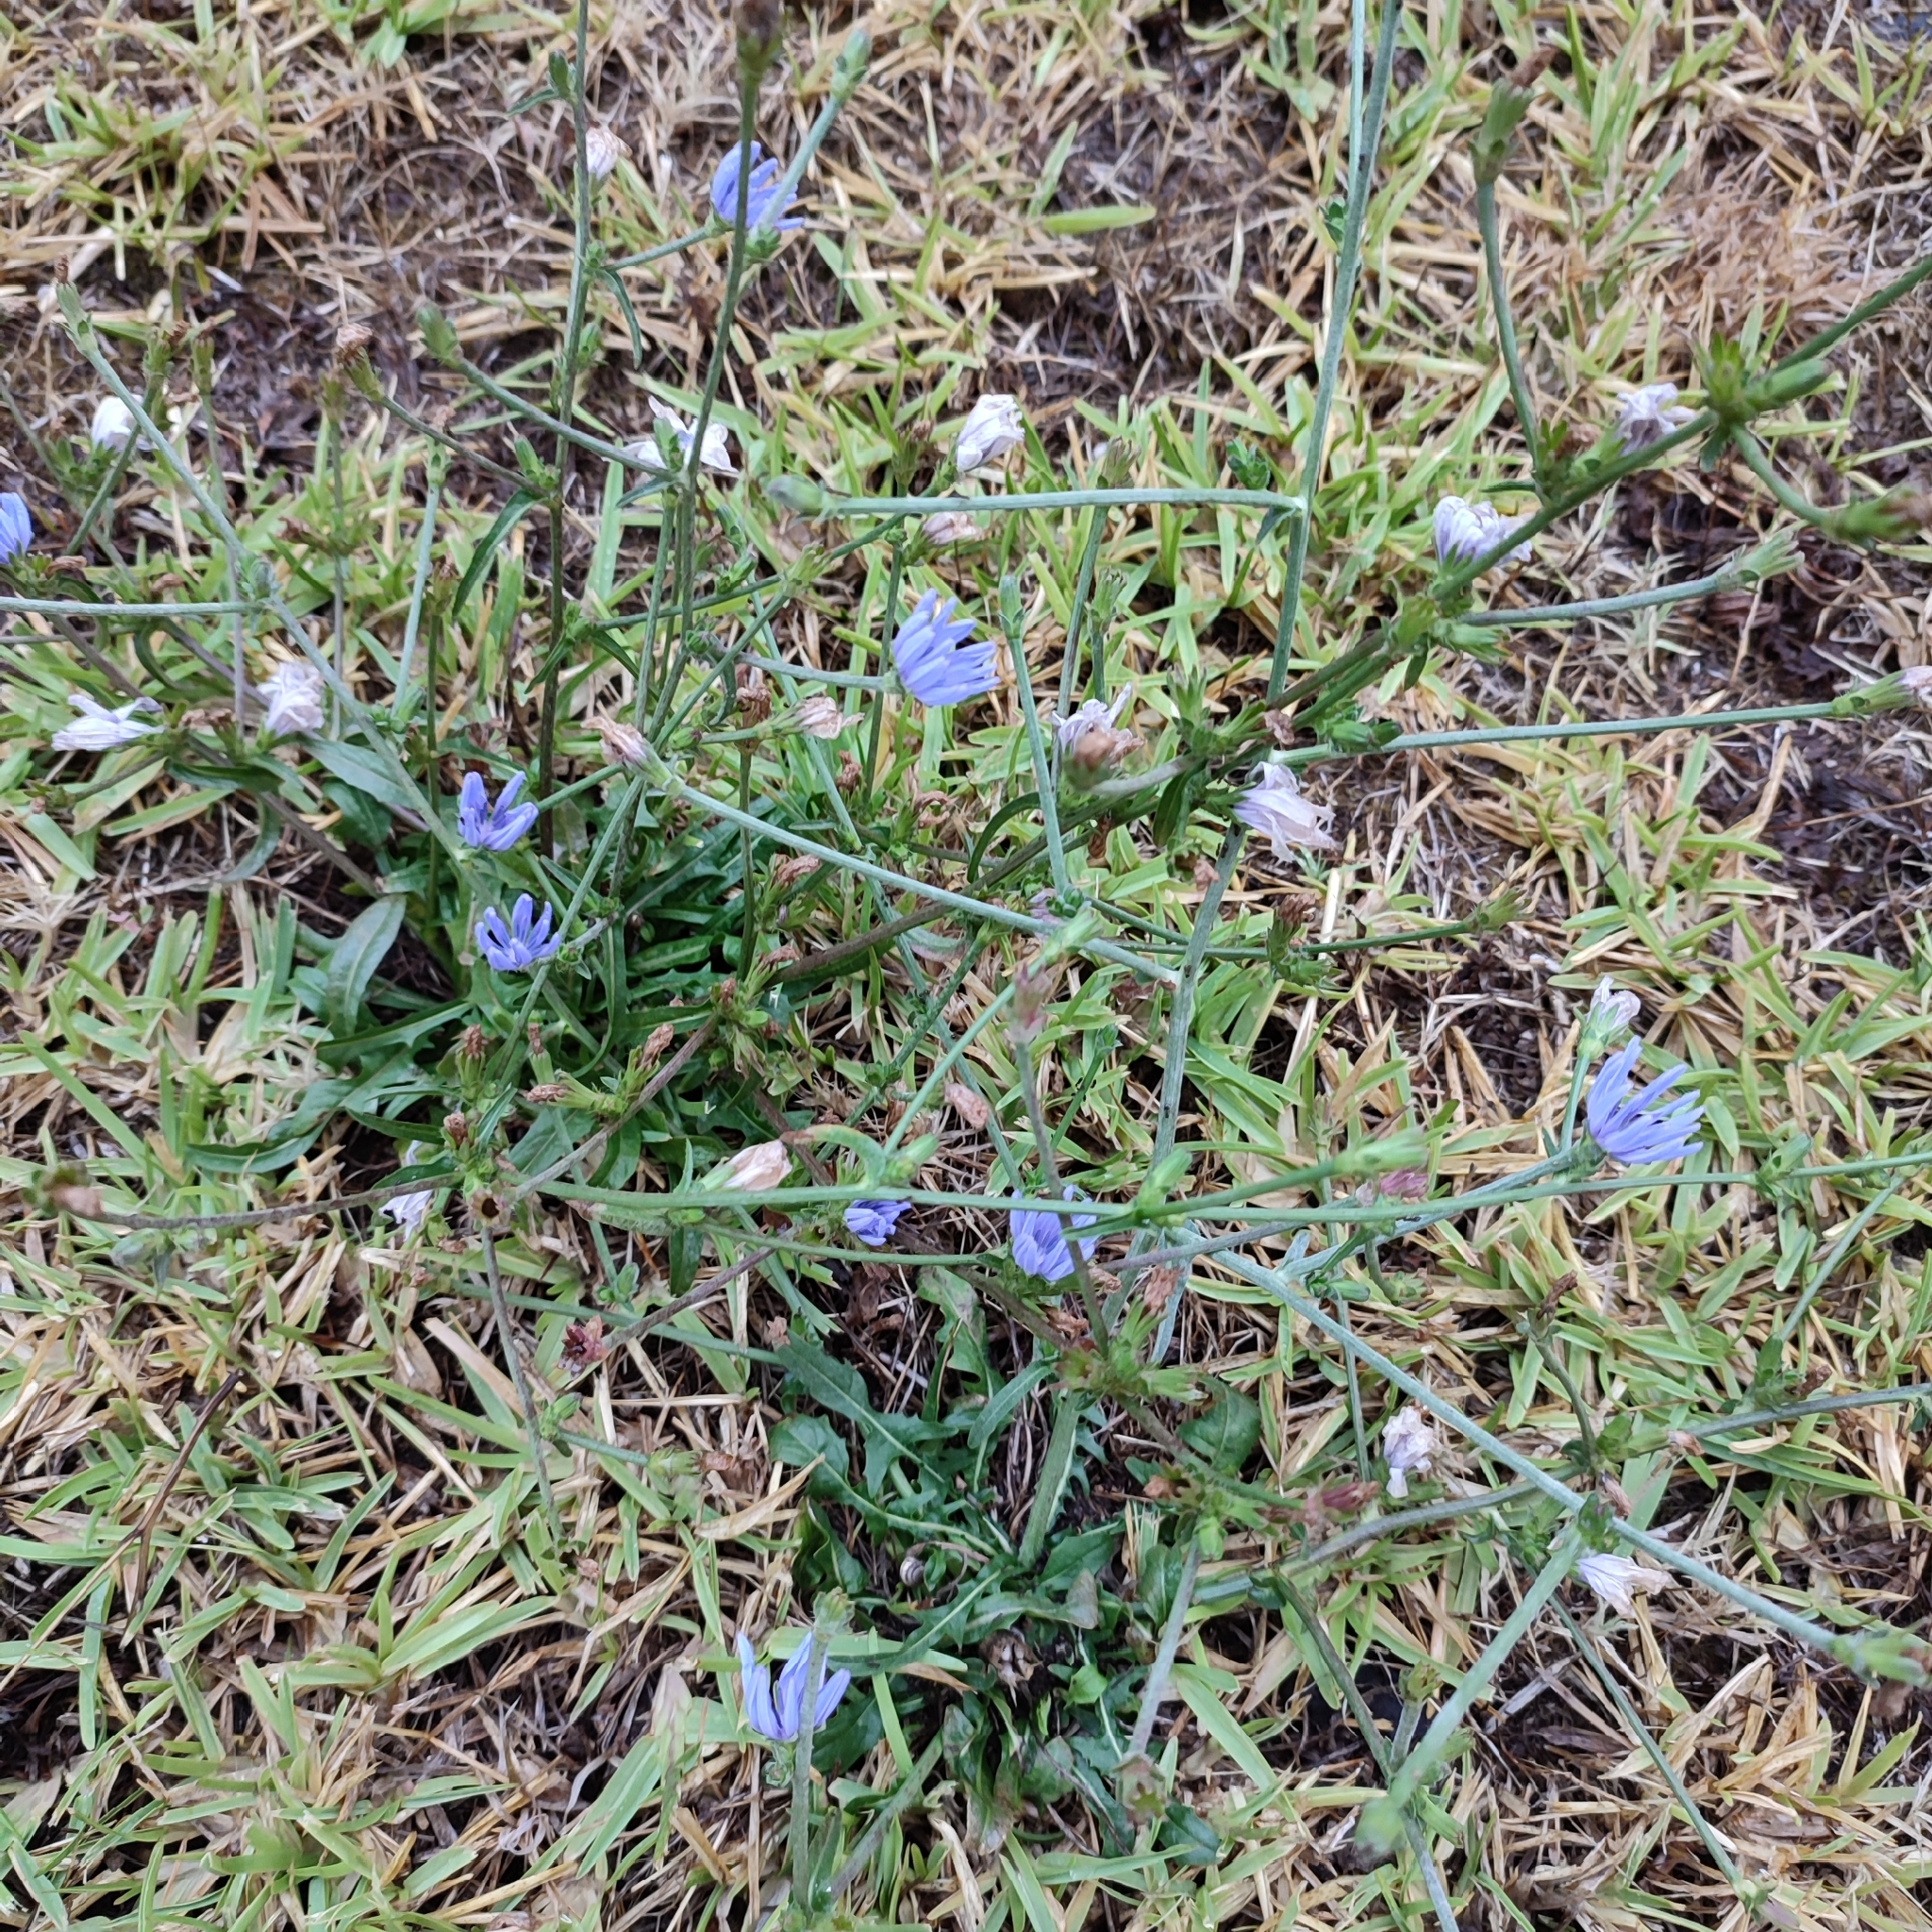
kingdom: Plantae
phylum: Tracheophyta
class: Magnoliopsida
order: Asterales
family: Asteraceae
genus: Cichorium
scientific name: Cichorium intybus
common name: Chicory
